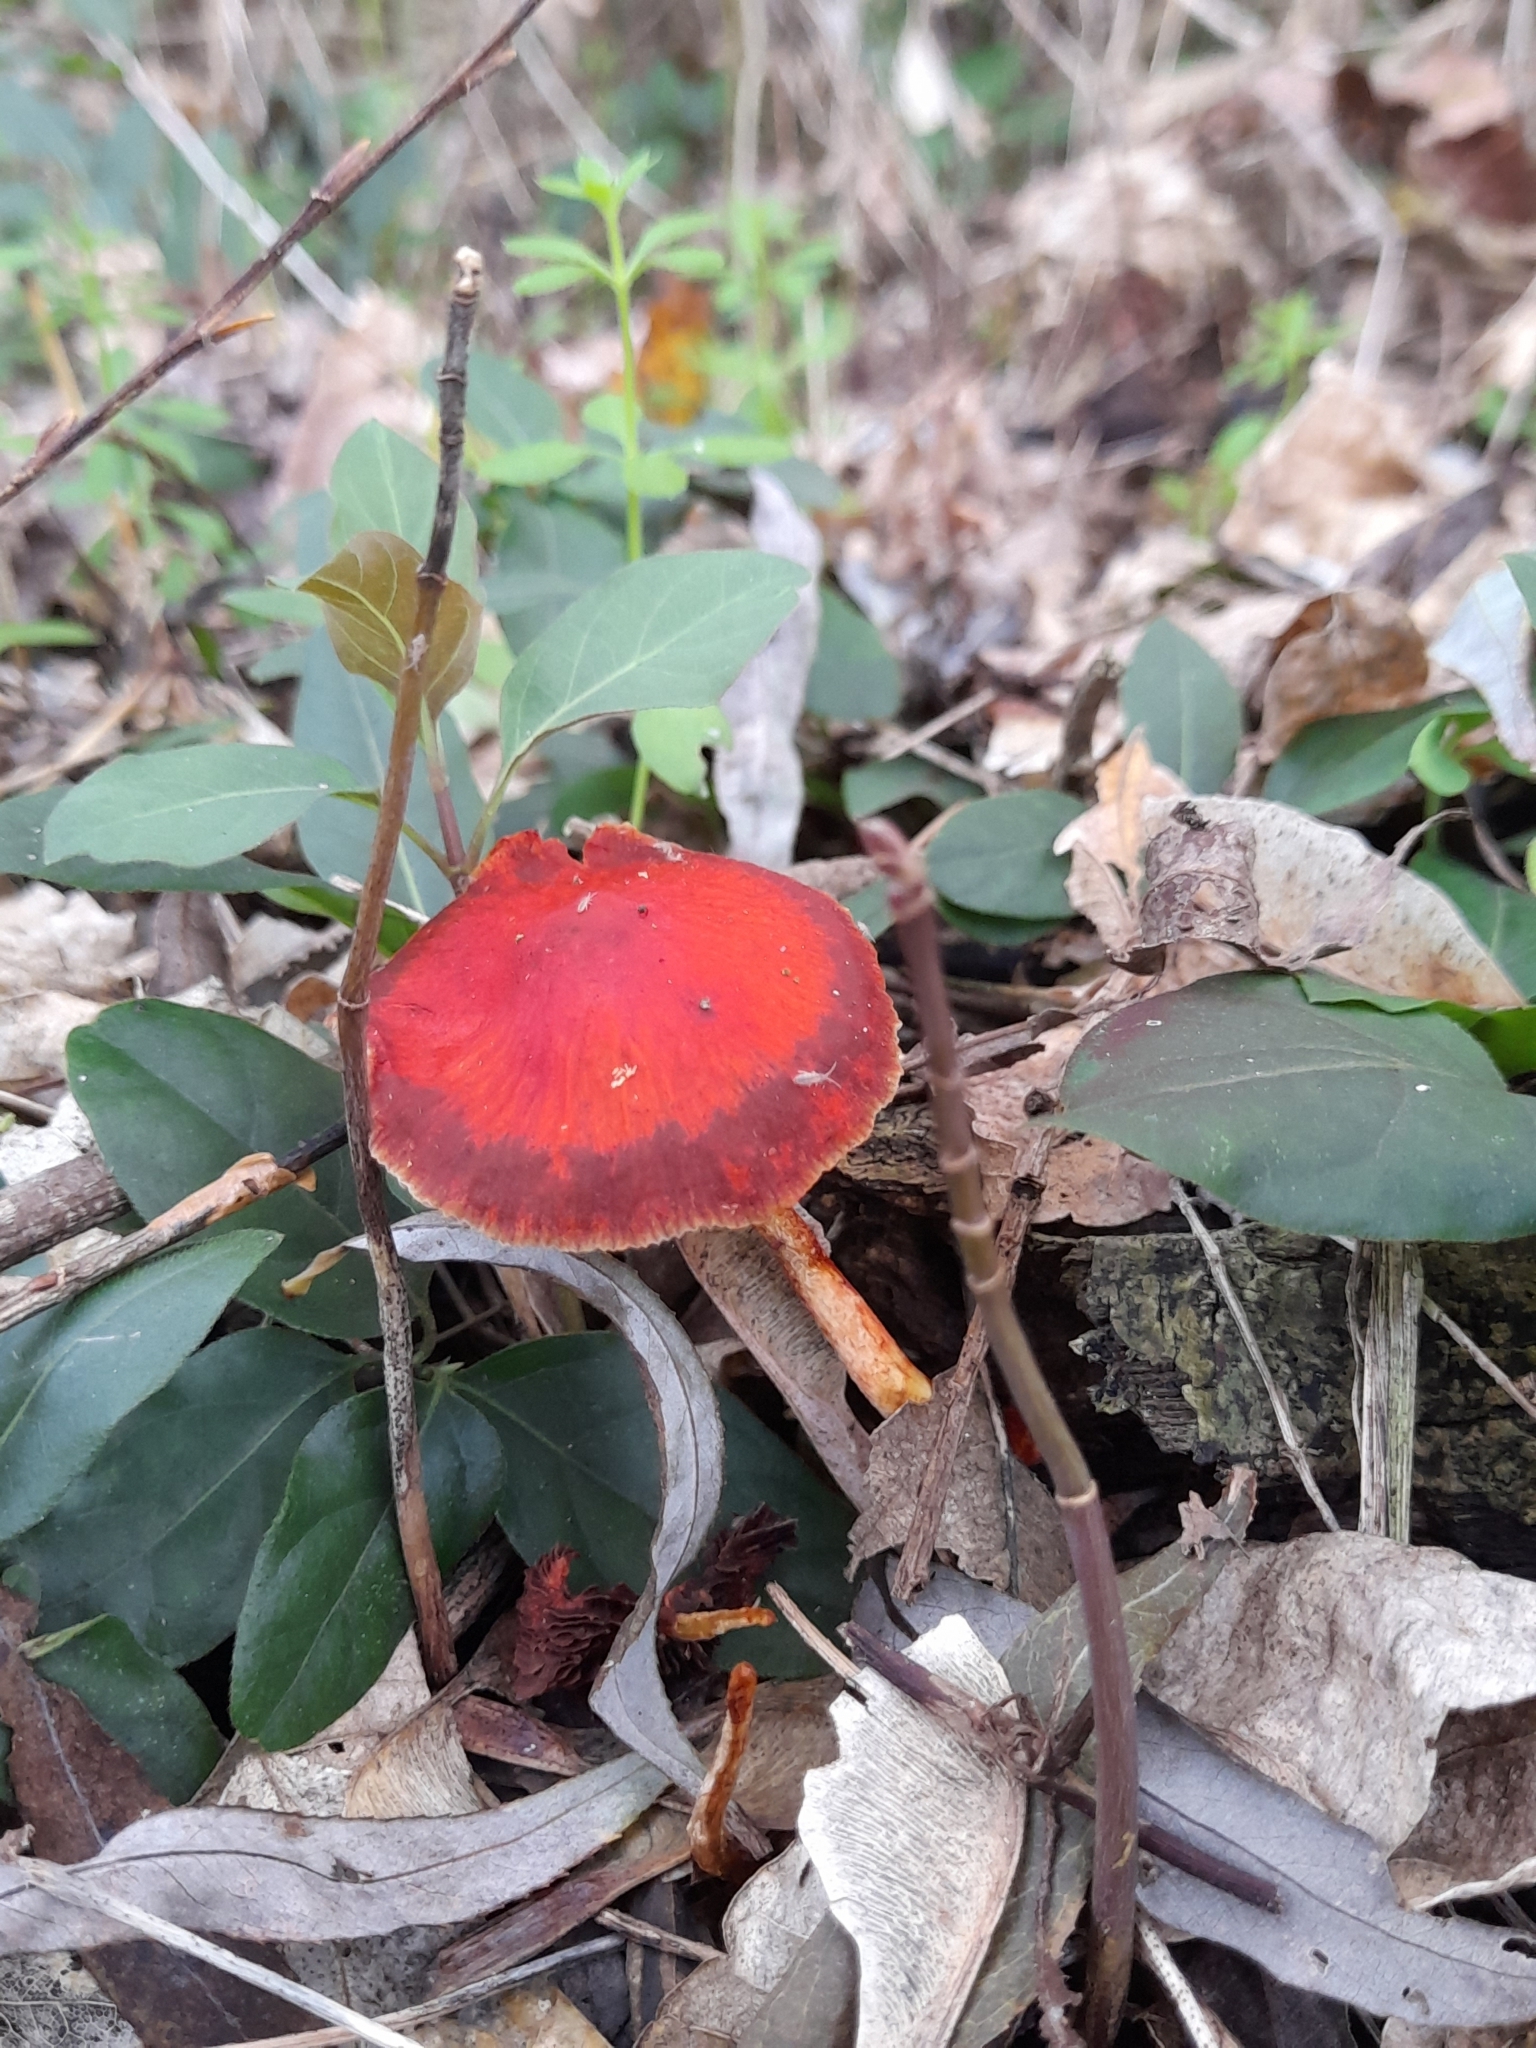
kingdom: Fungi
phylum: Basidiomycota
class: Agaricomycetes
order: Agaricales
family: Strophariaceae
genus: Leratiomyces
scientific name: Leratiomyces ceres
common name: Redlead roundhead
